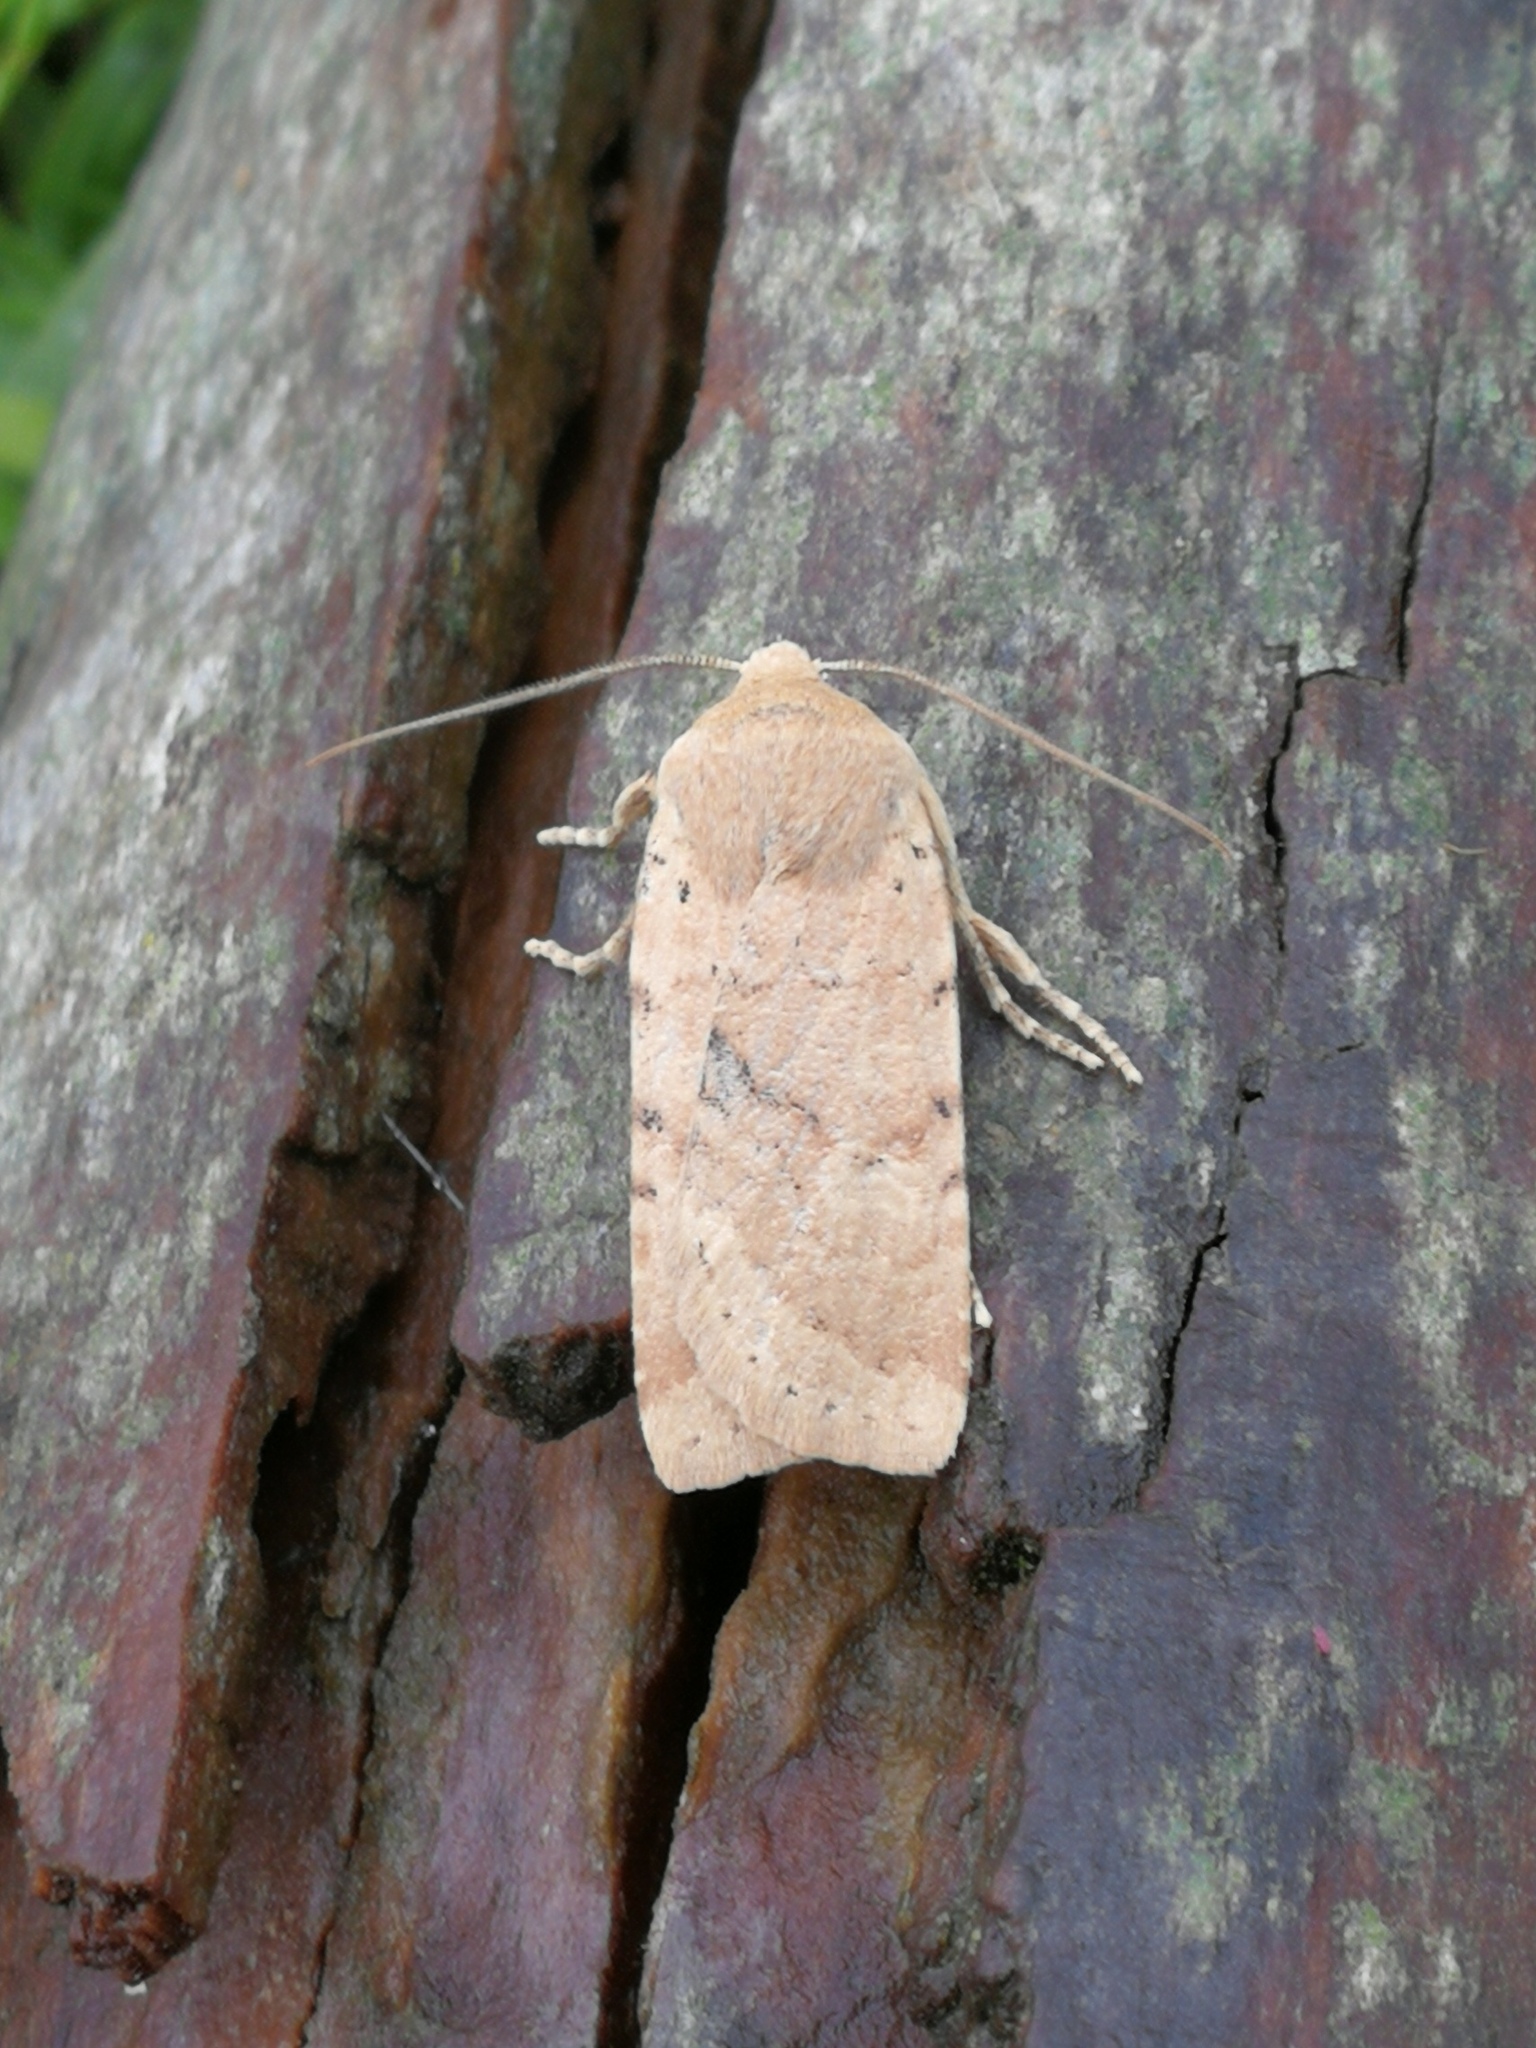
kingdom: Animalia
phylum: Arthropoda
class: Insecta
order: Lepidoptera
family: Noctuidae
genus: Conistra
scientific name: Conistra daubei
